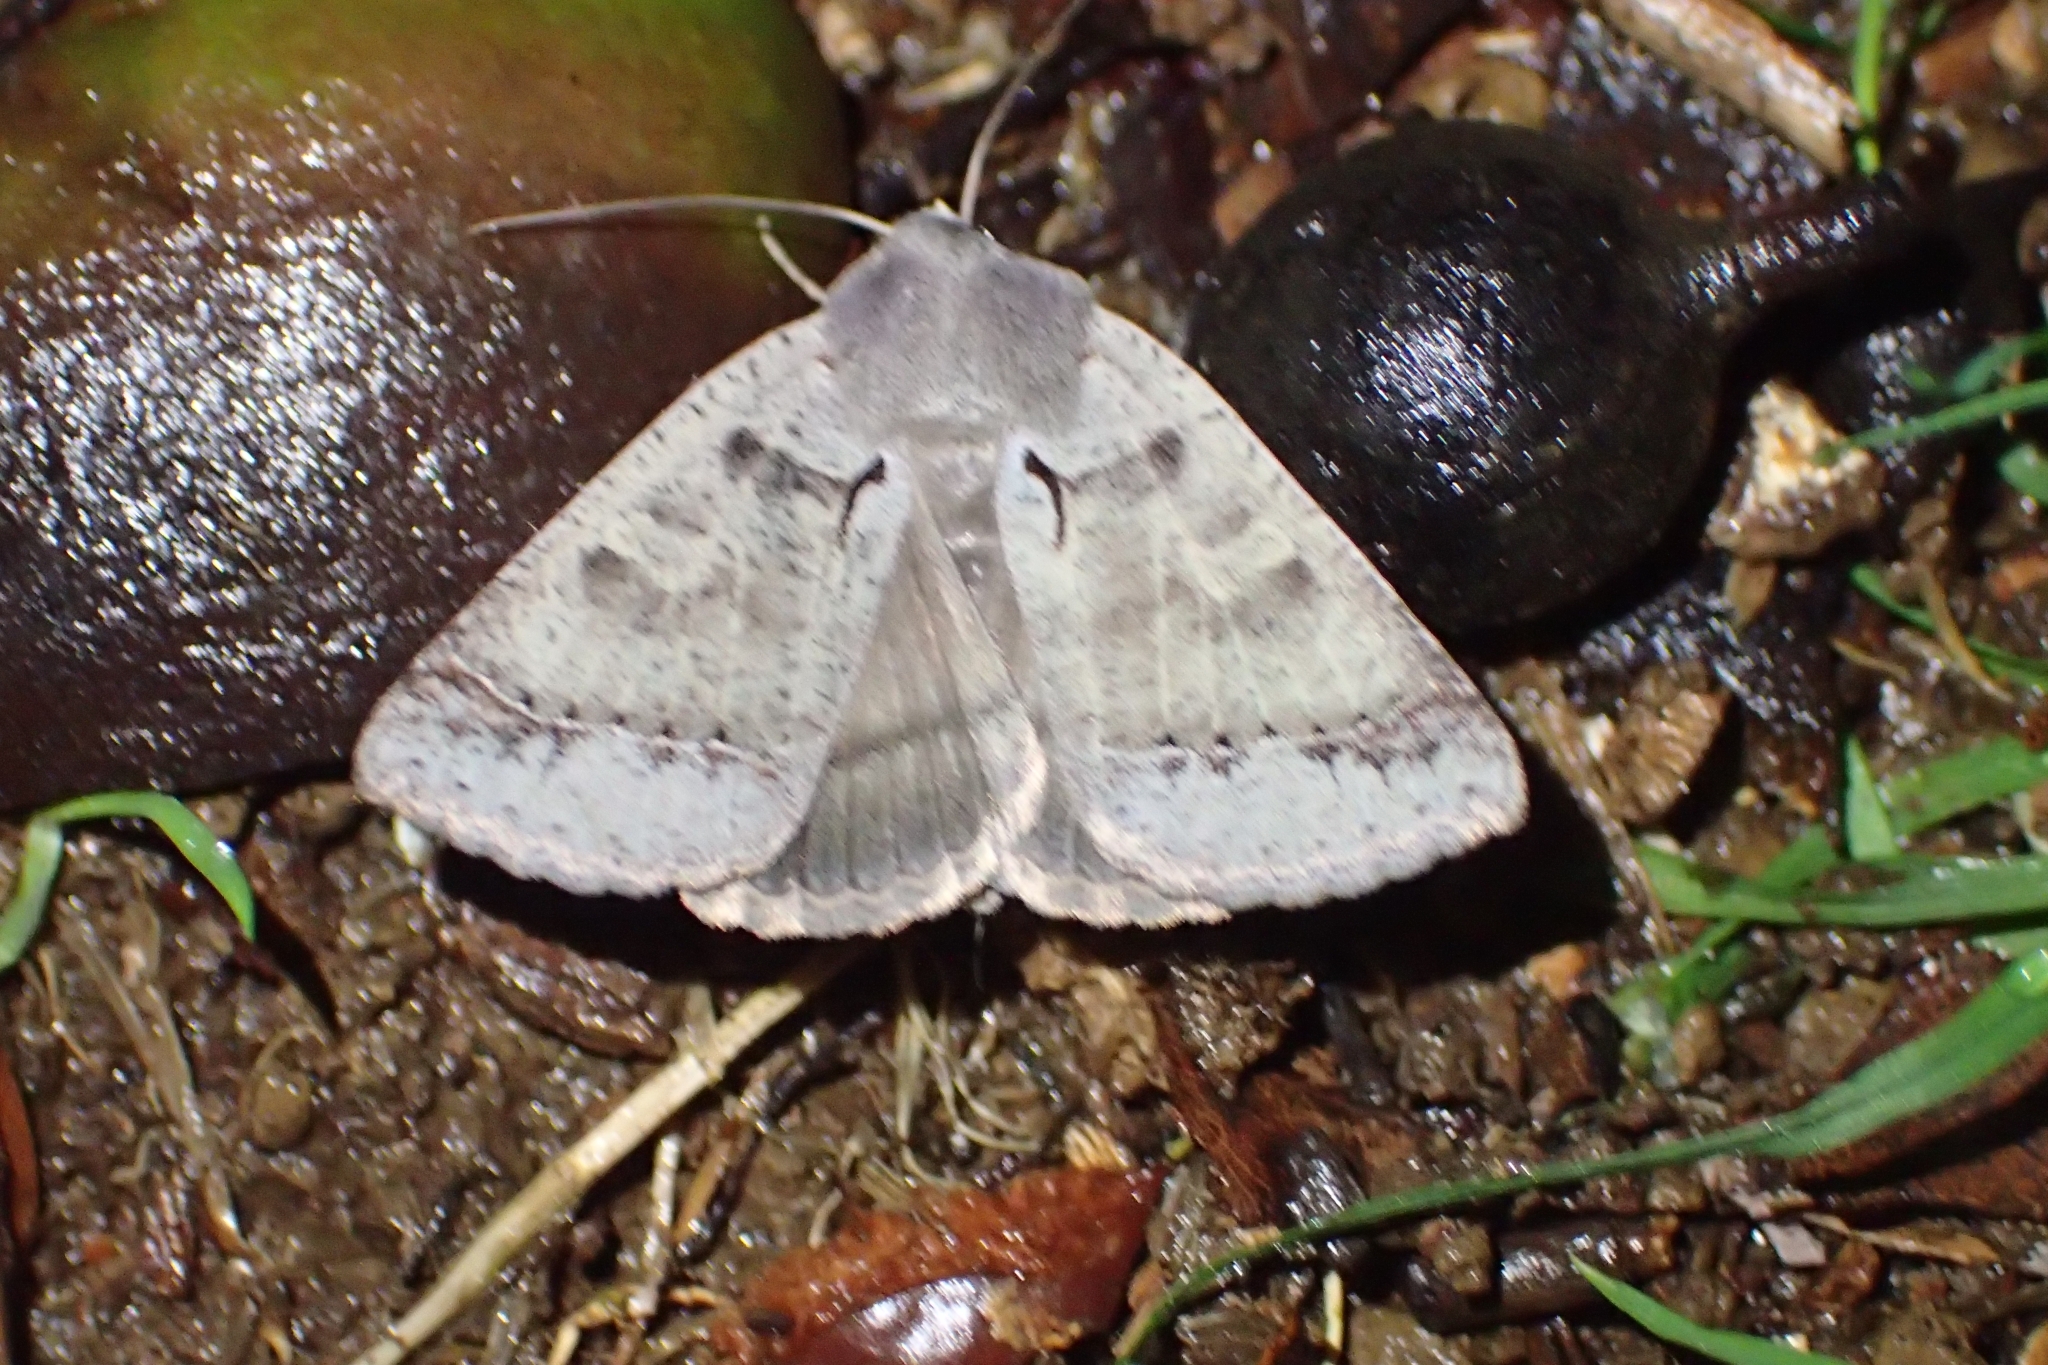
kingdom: Animalia
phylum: Arthropoda
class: Insecta
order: Lepidoptera
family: Erebidae
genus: Pantydia
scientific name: Pantydia sparsa
